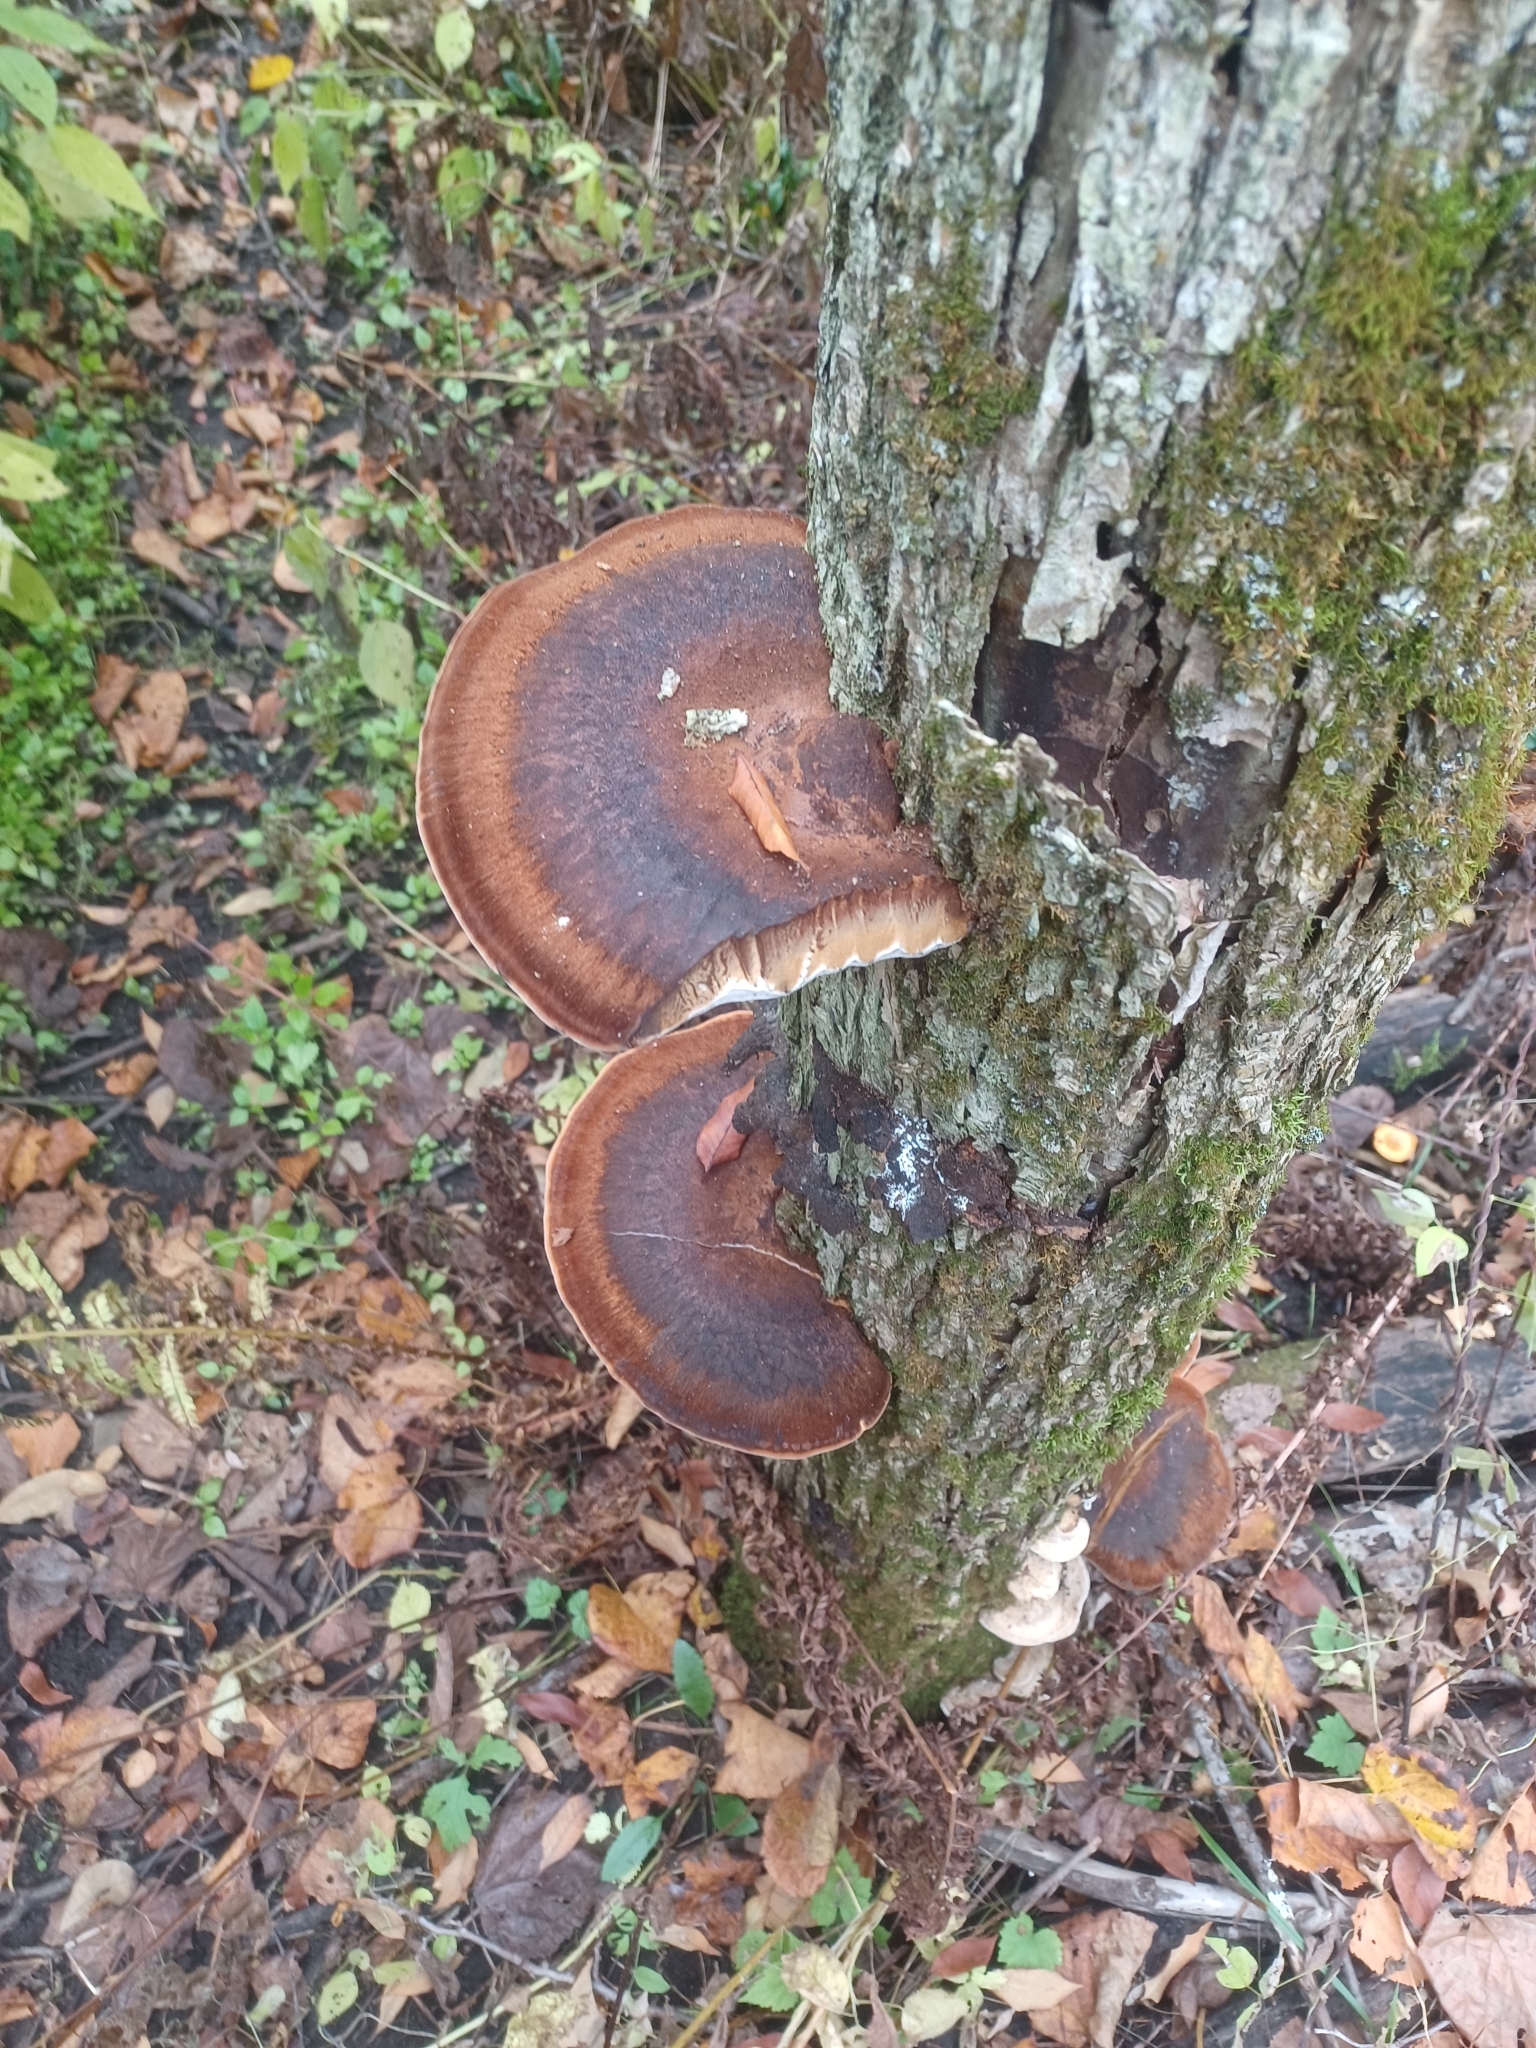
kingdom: Fungi
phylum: Basidiomycota
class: Agaricomycetes
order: Polyporales
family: Ischnodermataceae
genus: Ischnoderma
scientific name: Ischnoderma resinosum
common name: Resinous polypore
